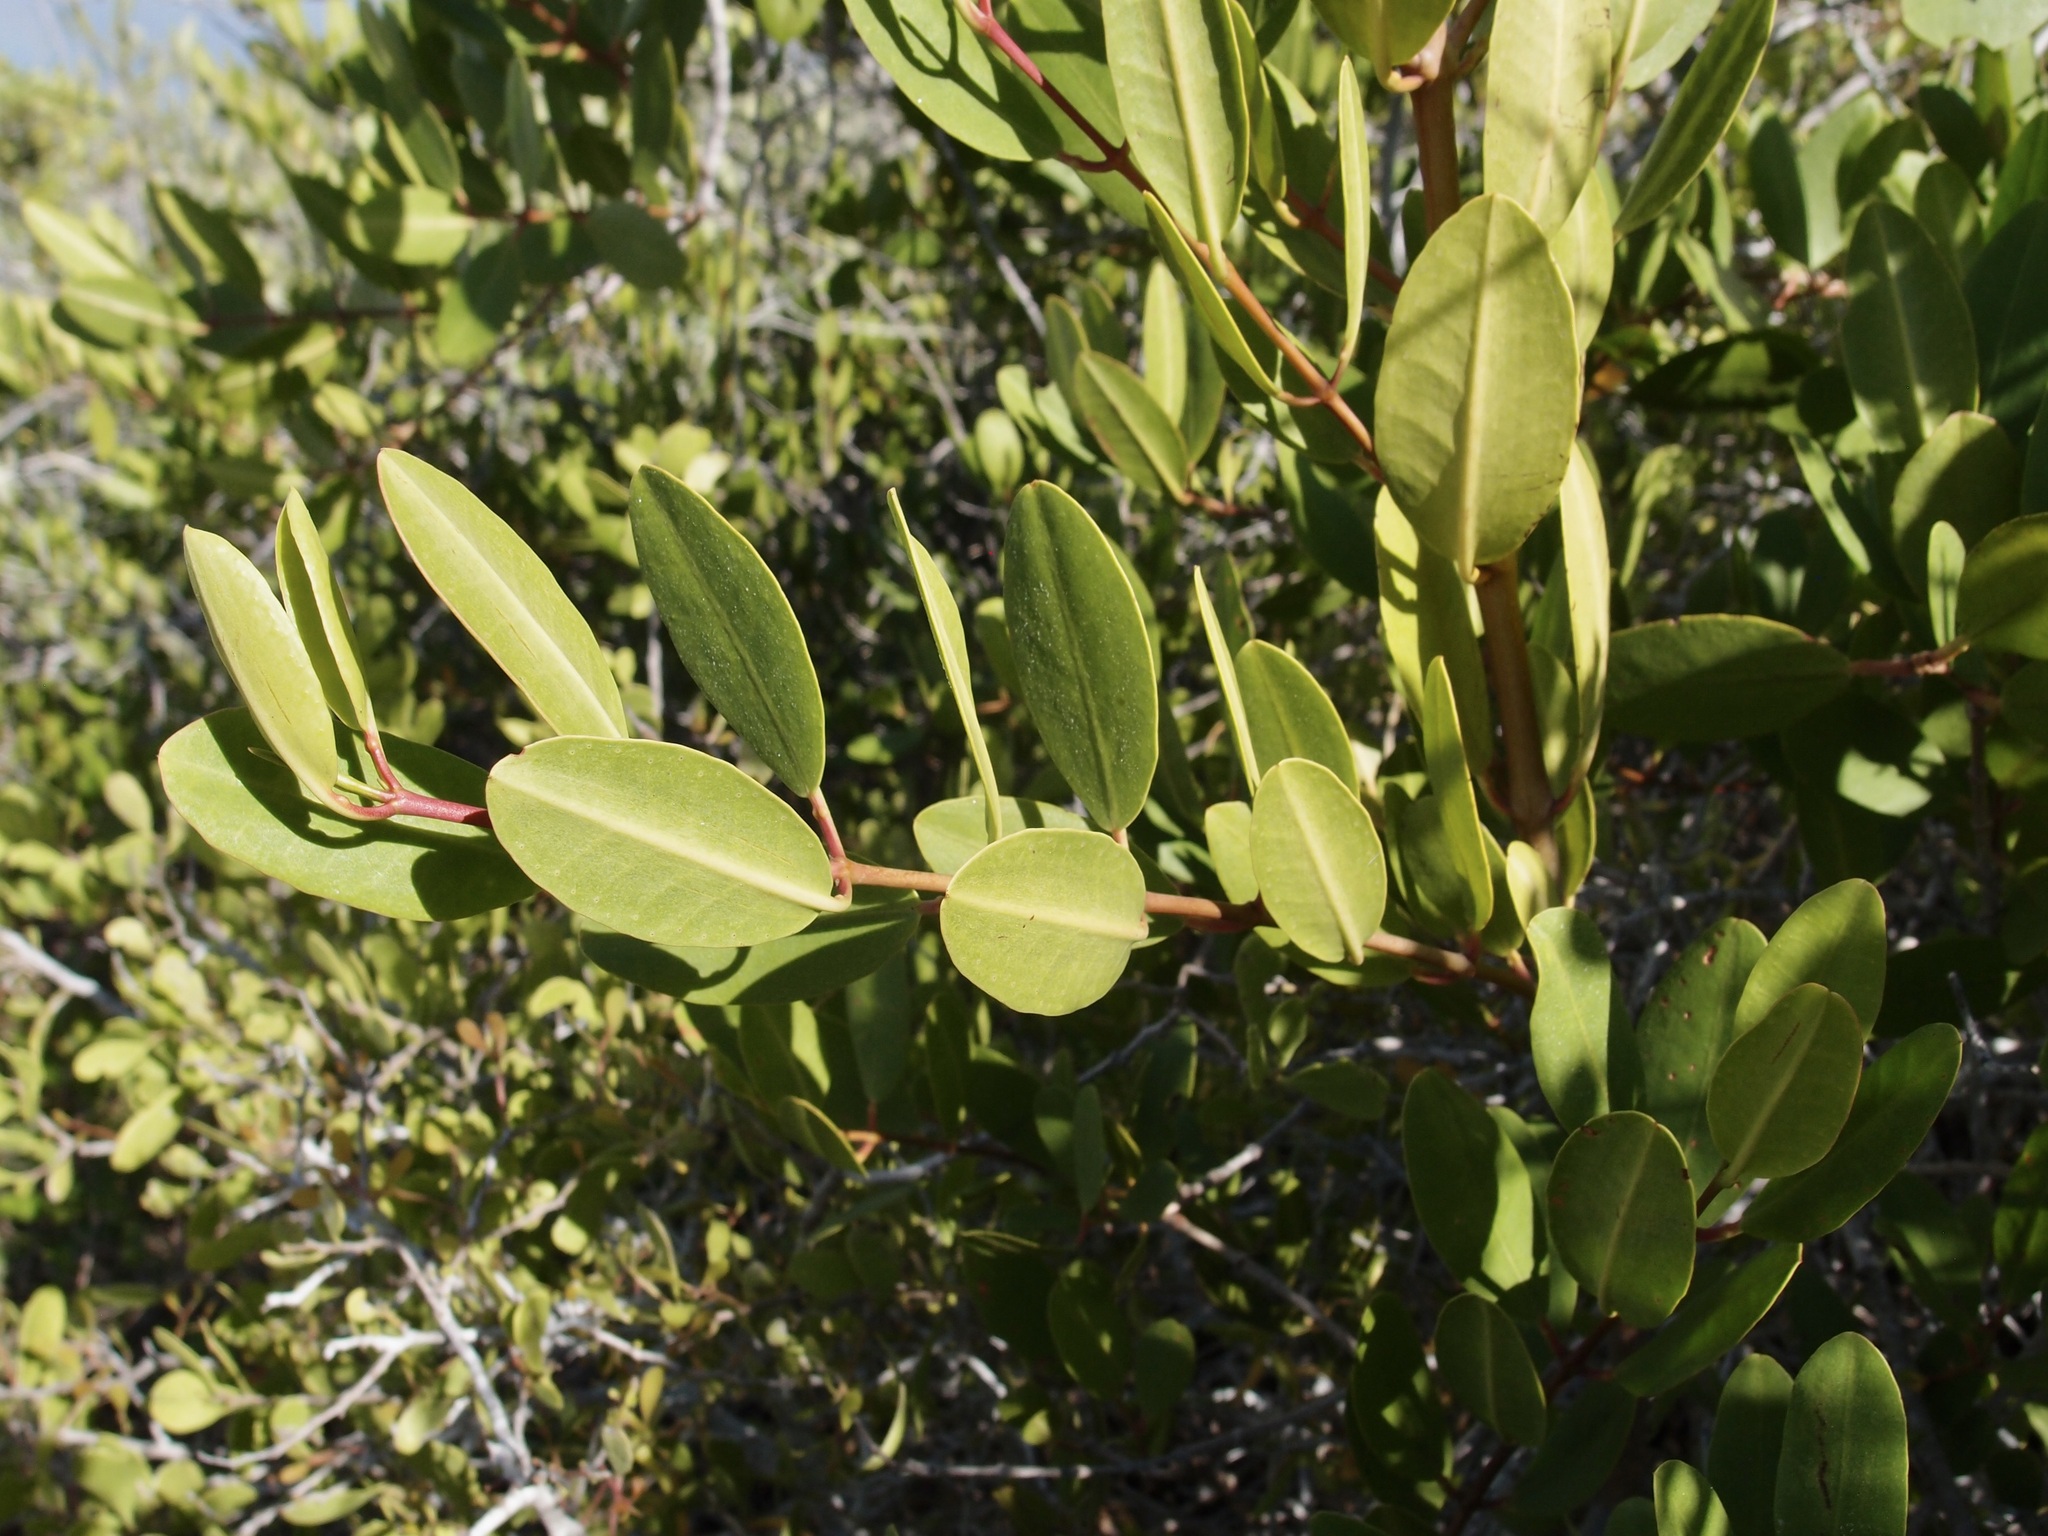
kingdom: Plantae
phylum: Tracheophyta
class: Magnoliopsida
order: Myrtales
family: Combretaceae
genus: Laguncularia
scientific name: Laguncularia racemosa
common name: White mangrove
